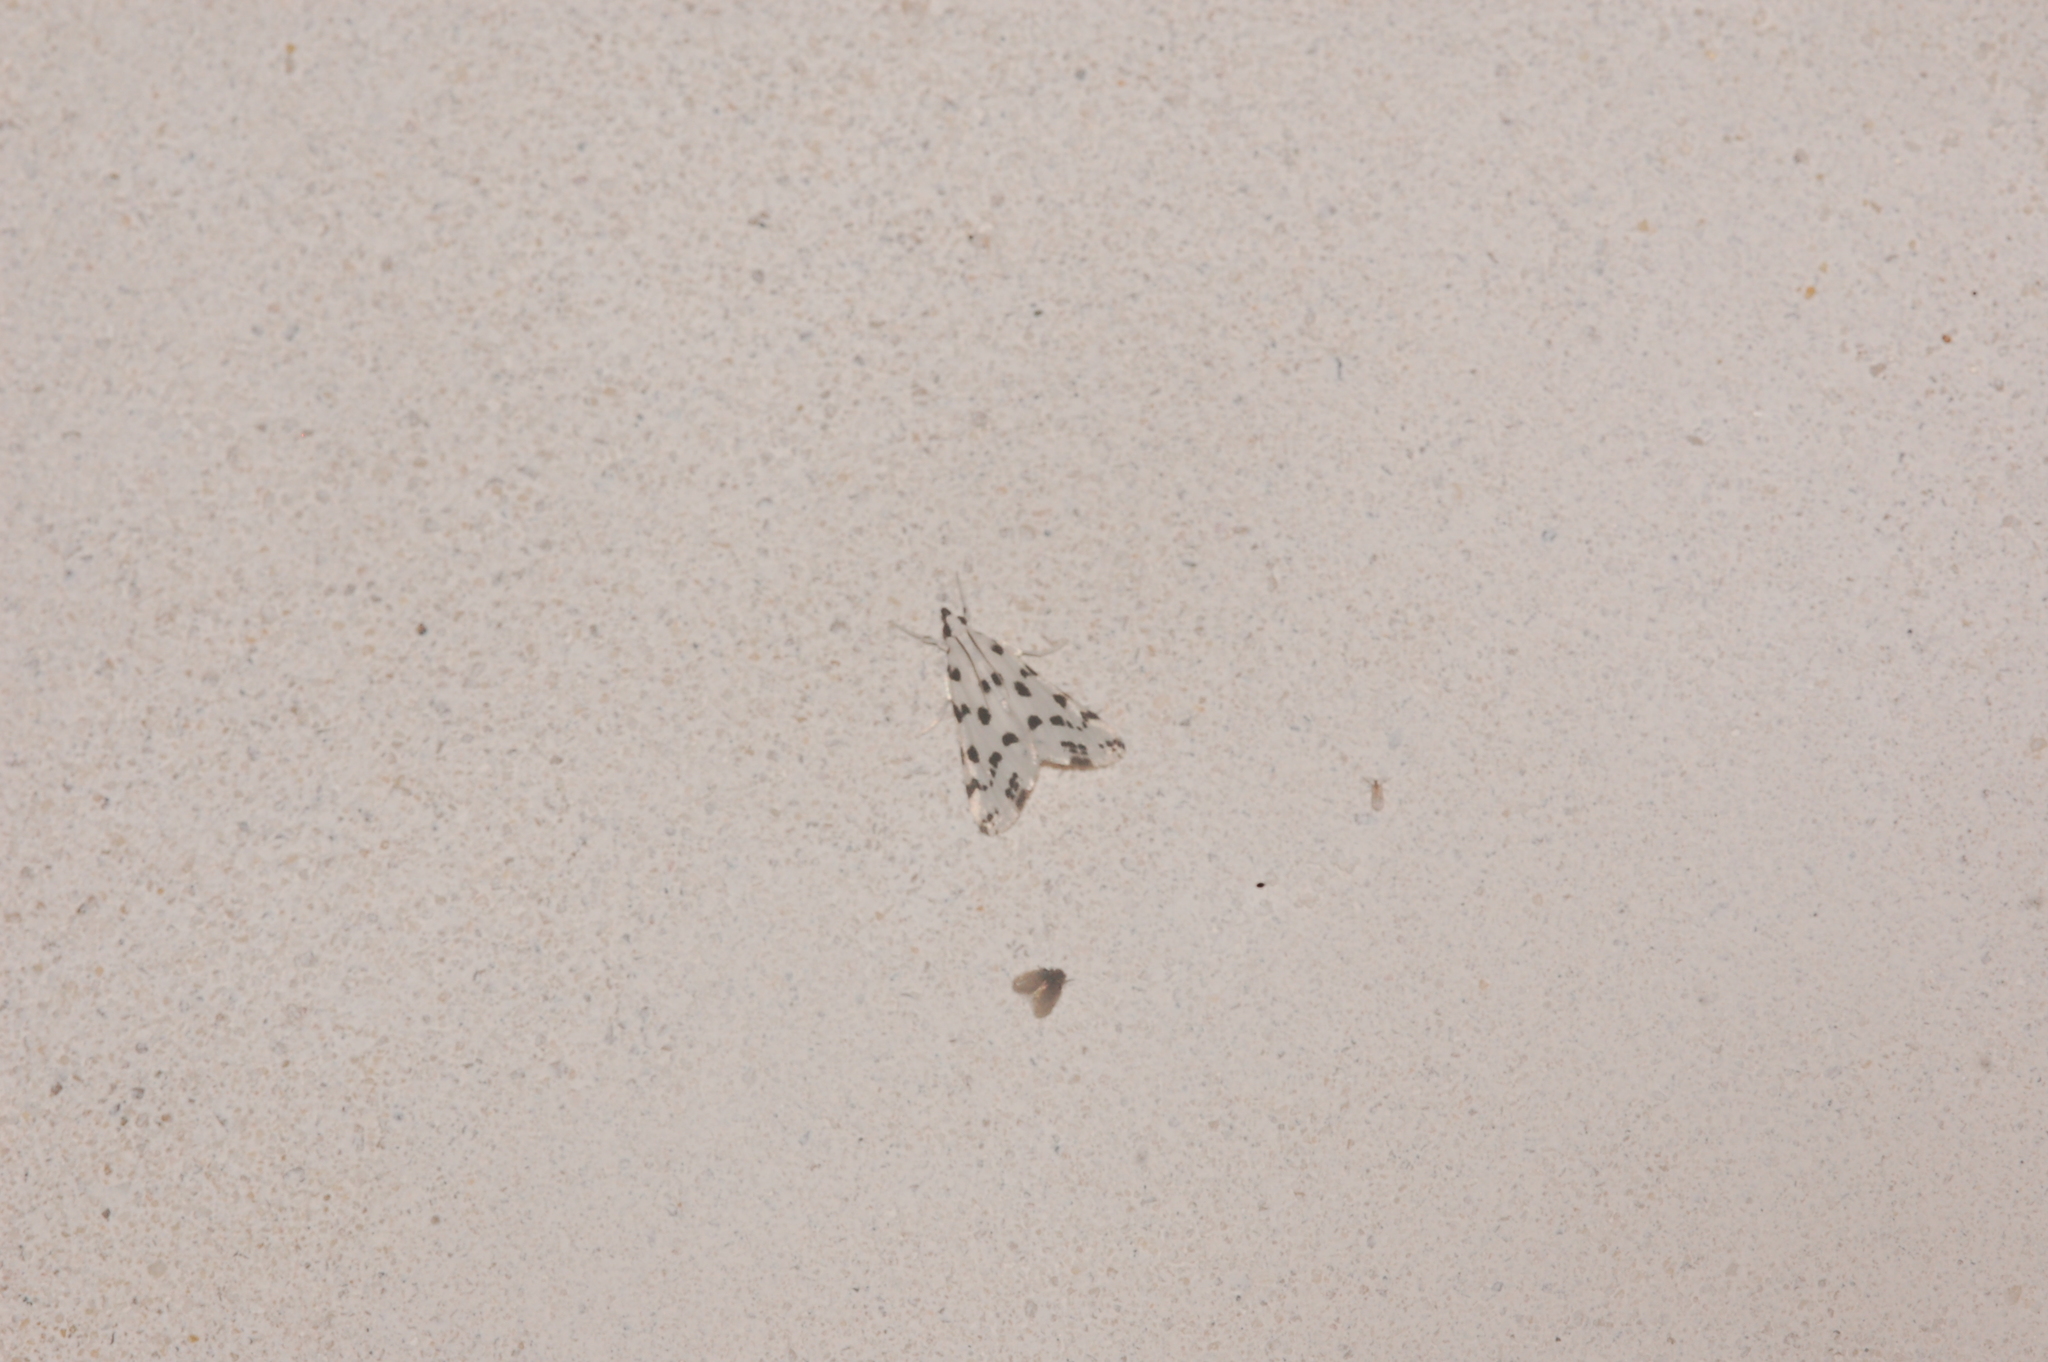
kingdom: Animalia
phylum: Arthropoda
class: Insecta
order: Lepidoptera
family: Crambidae
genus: Eustixia
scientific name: Eustixia pupula
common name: American cabbage pearl
